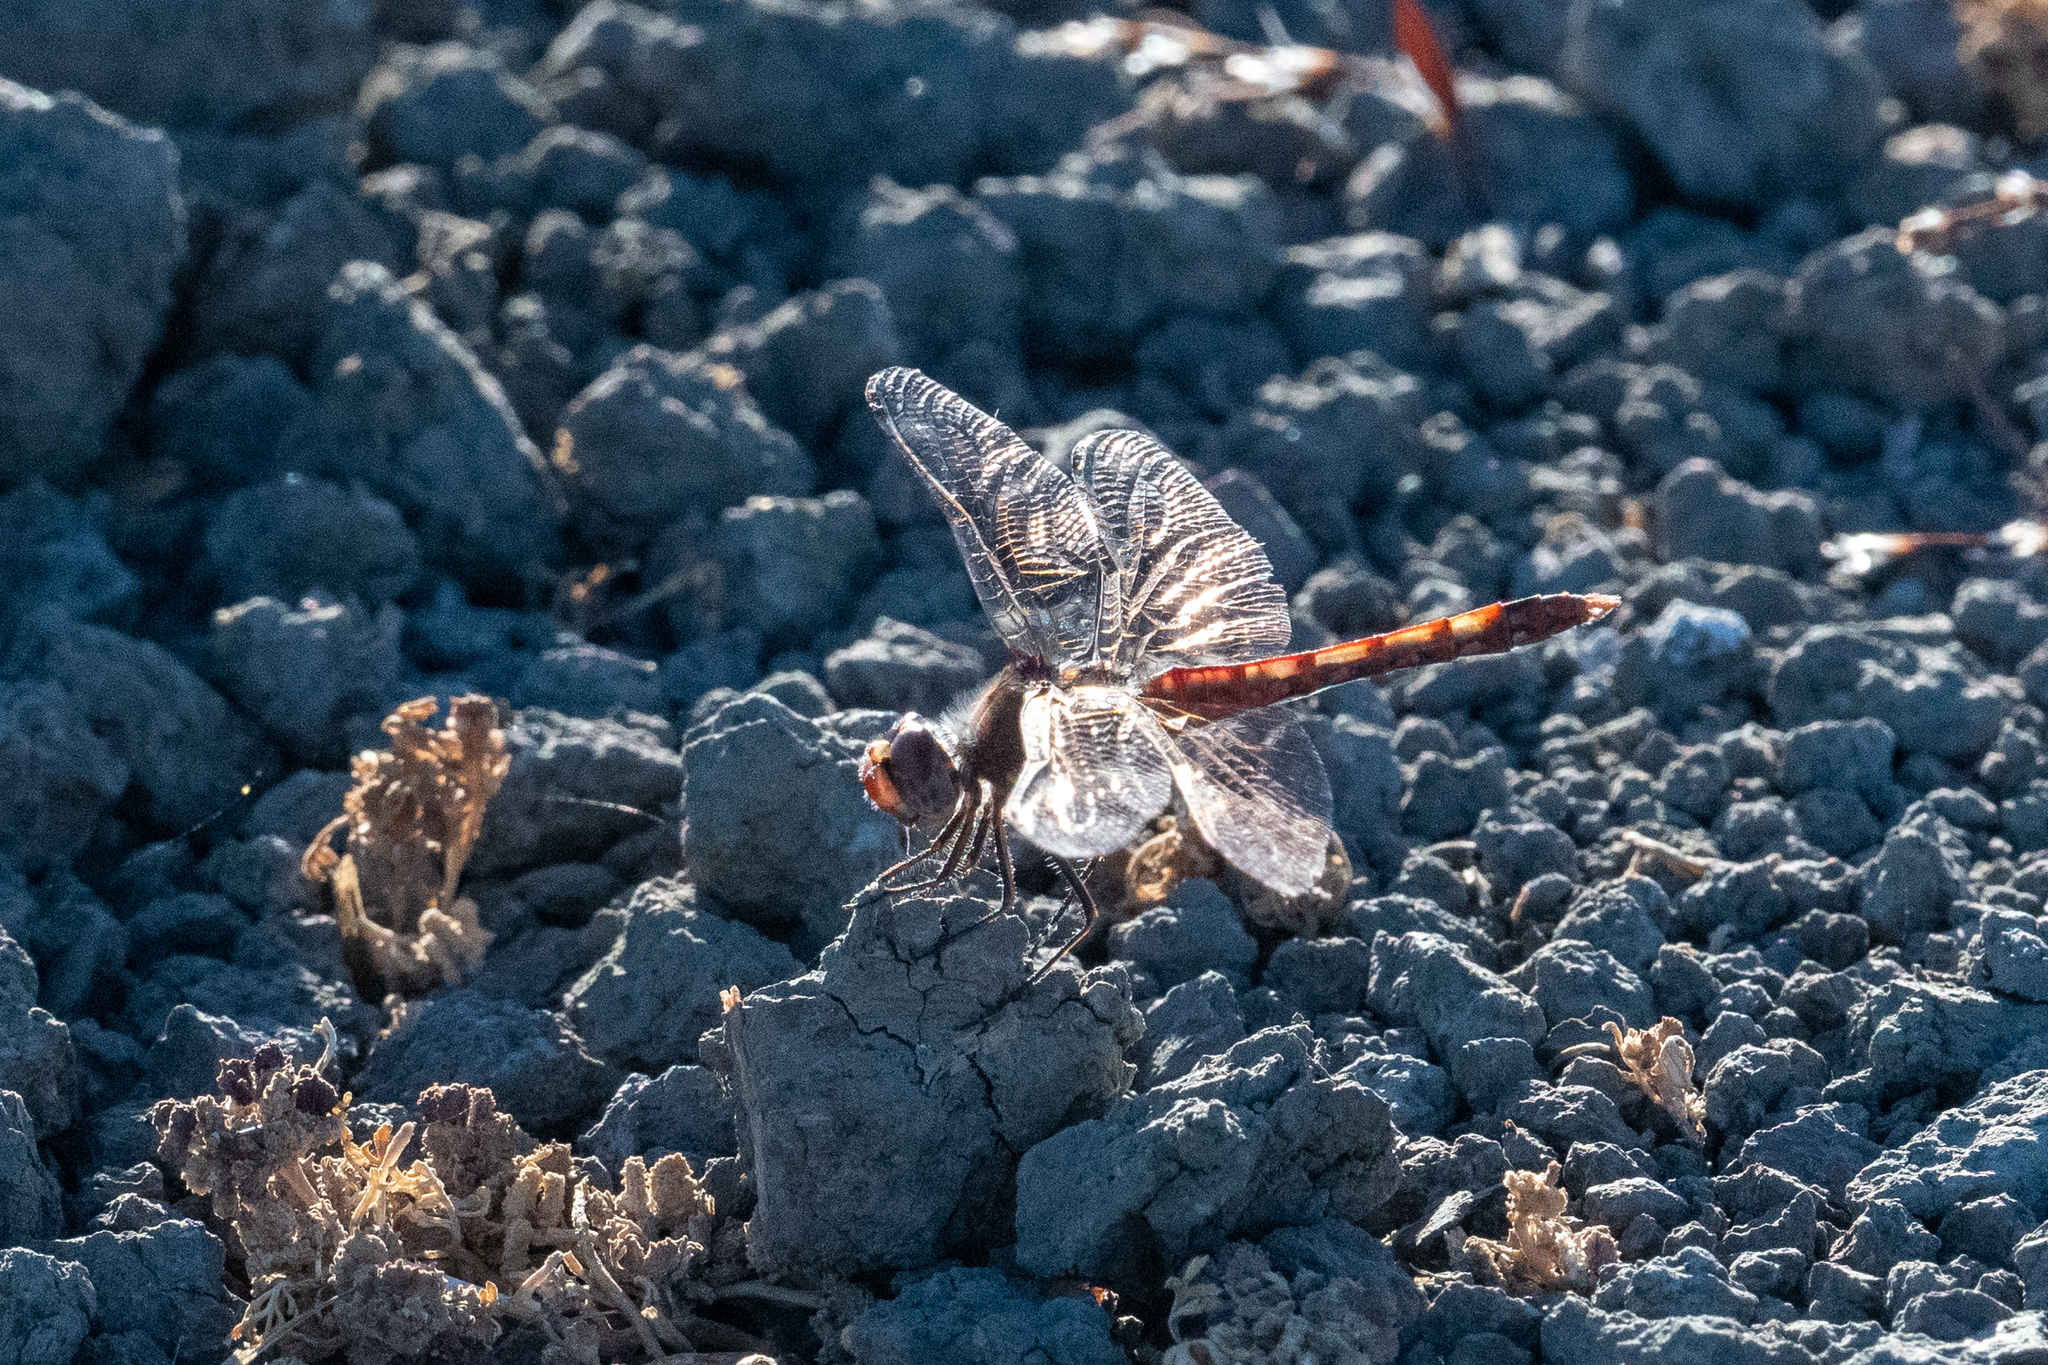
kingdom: Animalia
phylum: Arthropoda
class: Insecta
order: Odonata
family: Libellulidae
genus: Sympetrum
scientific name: Sympetrum corruptum
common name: Variegated meadowhawk
